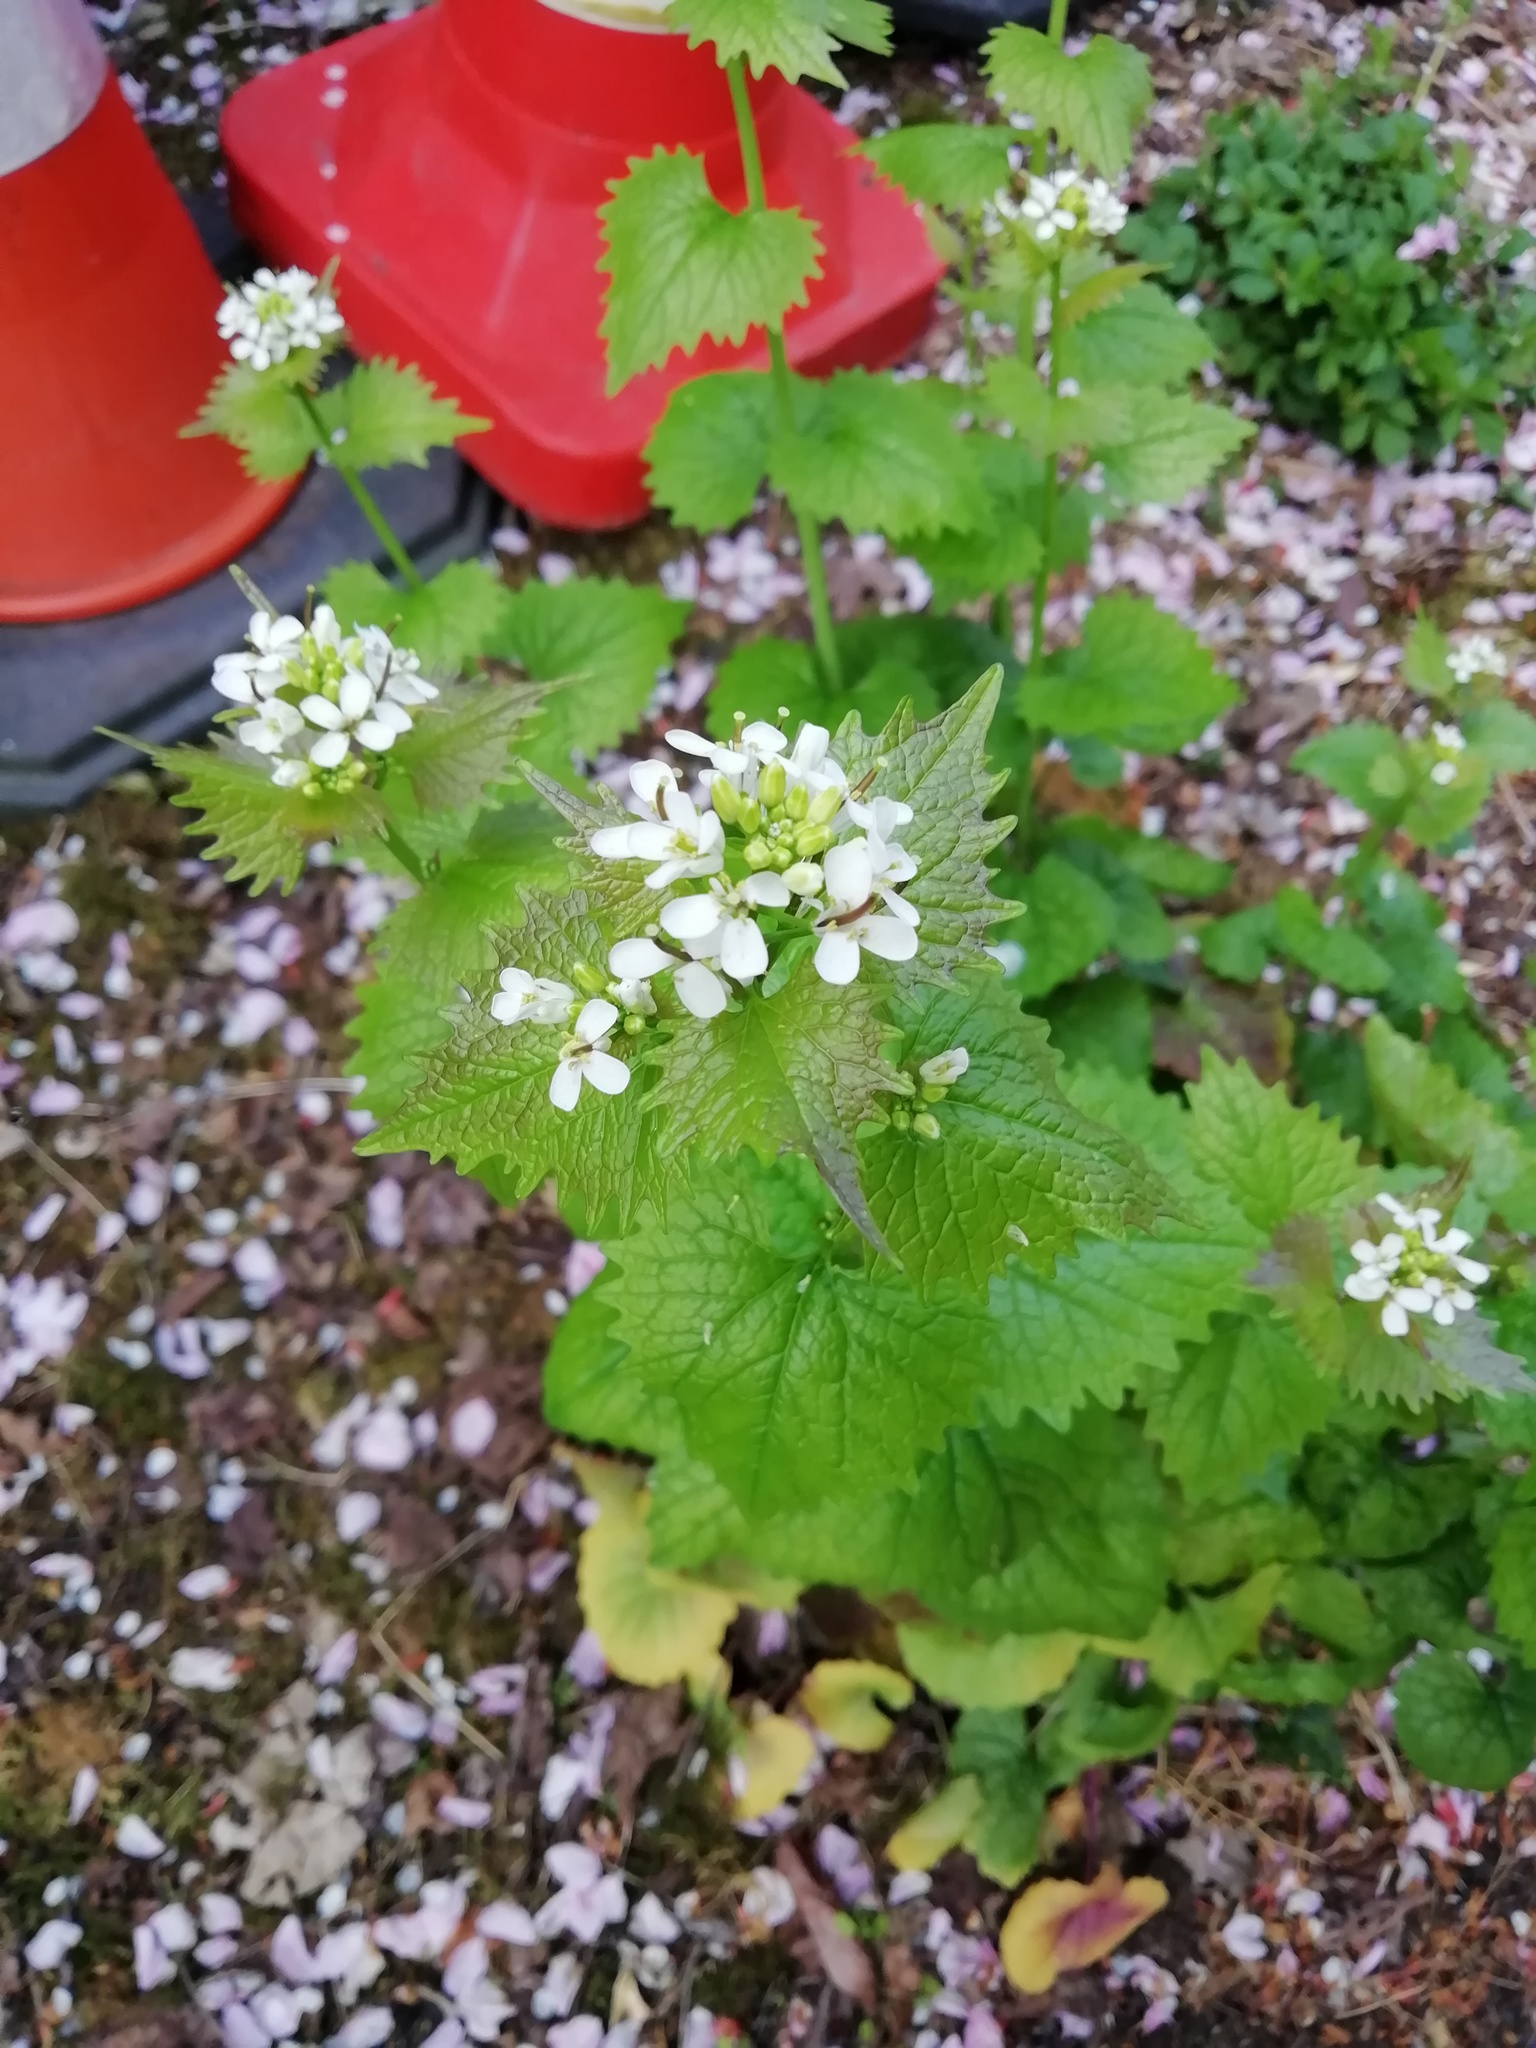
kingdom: Plantae
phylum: Tracheophyta
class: Magnoliopsida
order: Brassicales
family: Brassicaceae
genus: Alliaria
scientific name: Alliaria petiolata
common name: Garlic mustard
